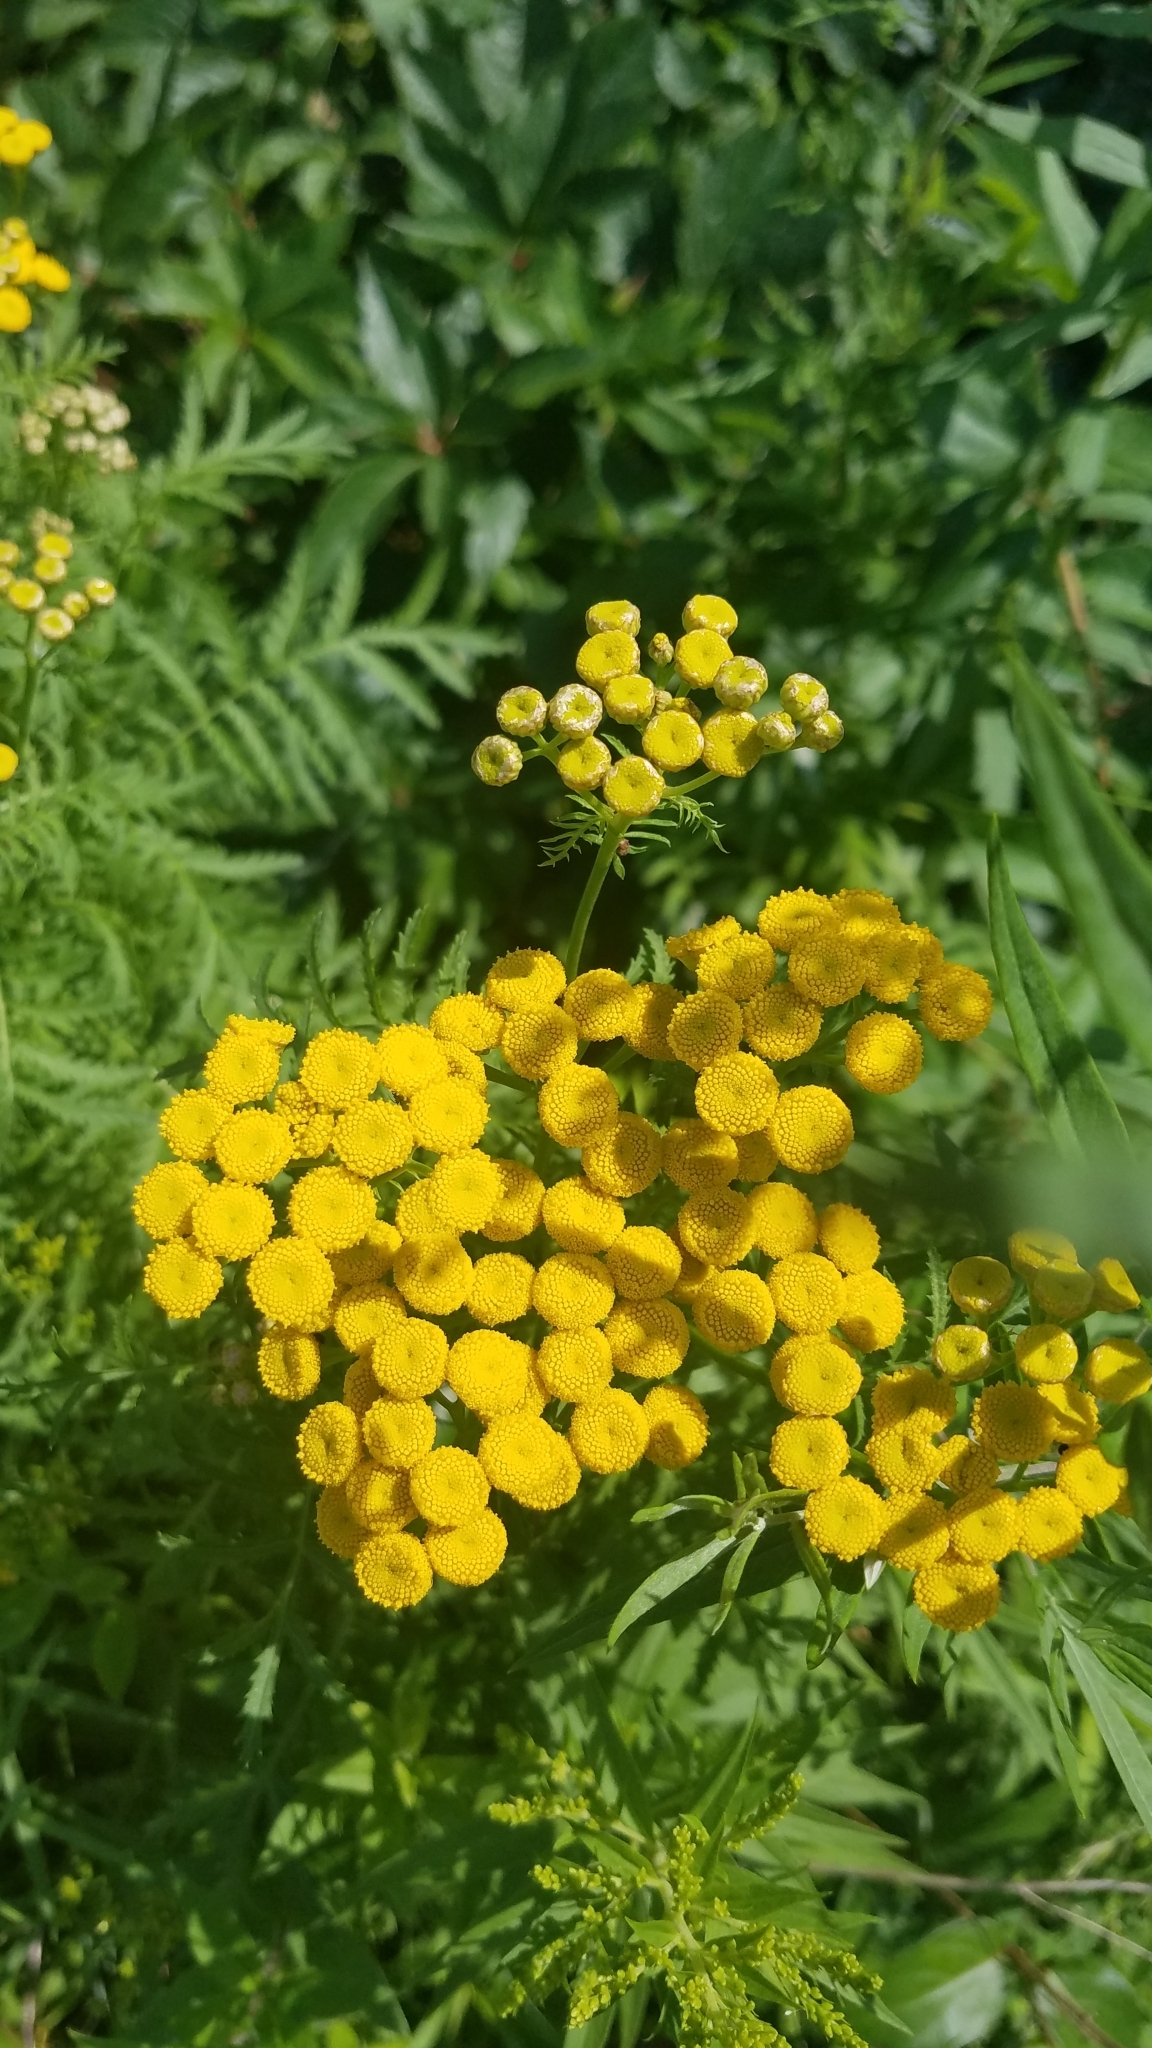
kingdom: Plantae
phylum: Tracheophyta
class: Magnoliopsida
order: Asterales
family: Asteraceae
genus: Tanacetum
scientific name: Tanacetum vulgare
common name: Common tansy
